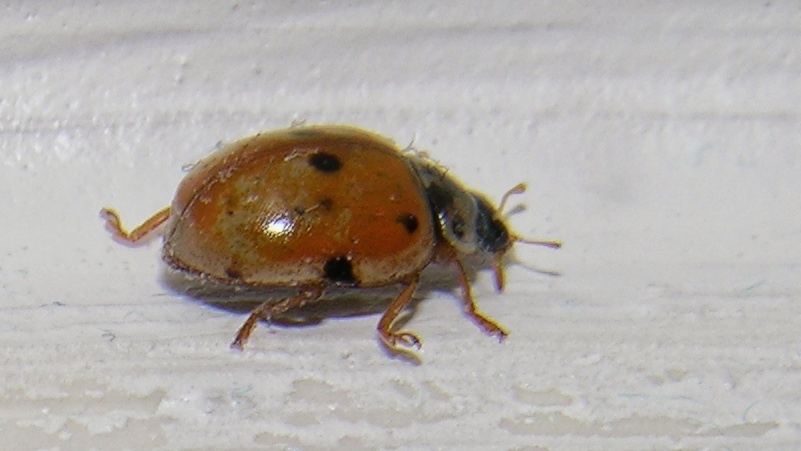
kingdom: Animalia
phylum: Arthropoda
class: Insecta
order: Coleoptera
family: Coccinellidae
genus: Adalia
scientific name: Adalia decempunctata
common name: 10-spot ladybird
